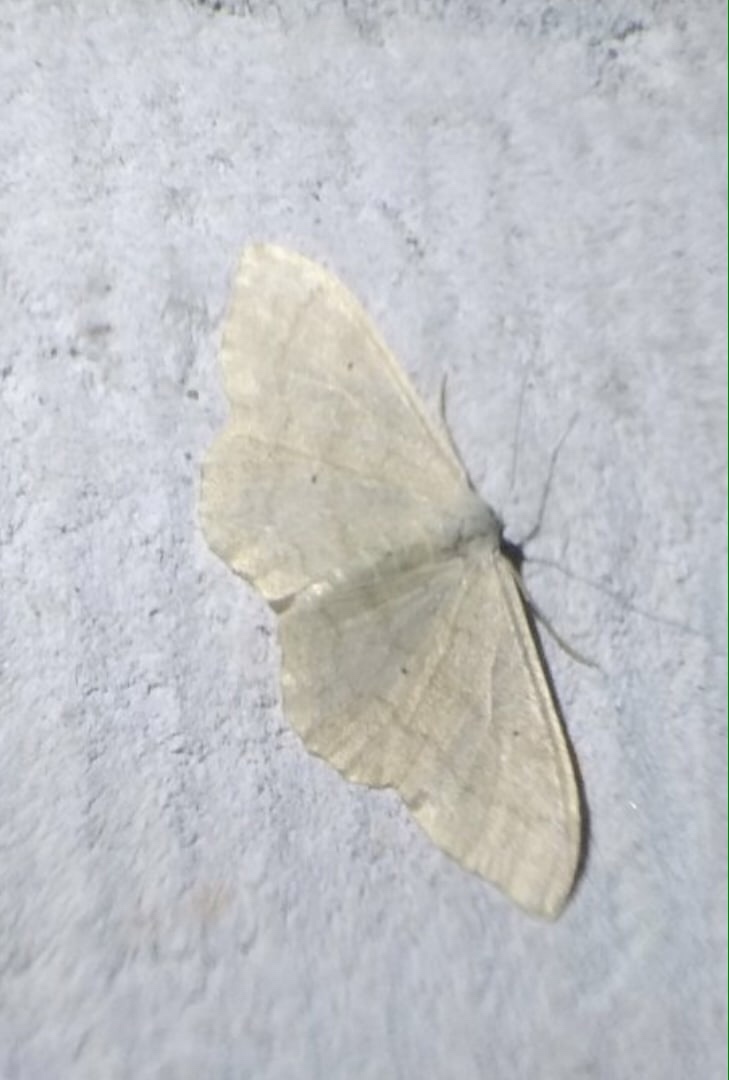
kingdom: Animalia
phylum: Arthropoda
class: Insecta
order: Lepidoptera
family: Geometridae
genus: Idaea
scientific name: Idaea straminata
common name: Plain wave
